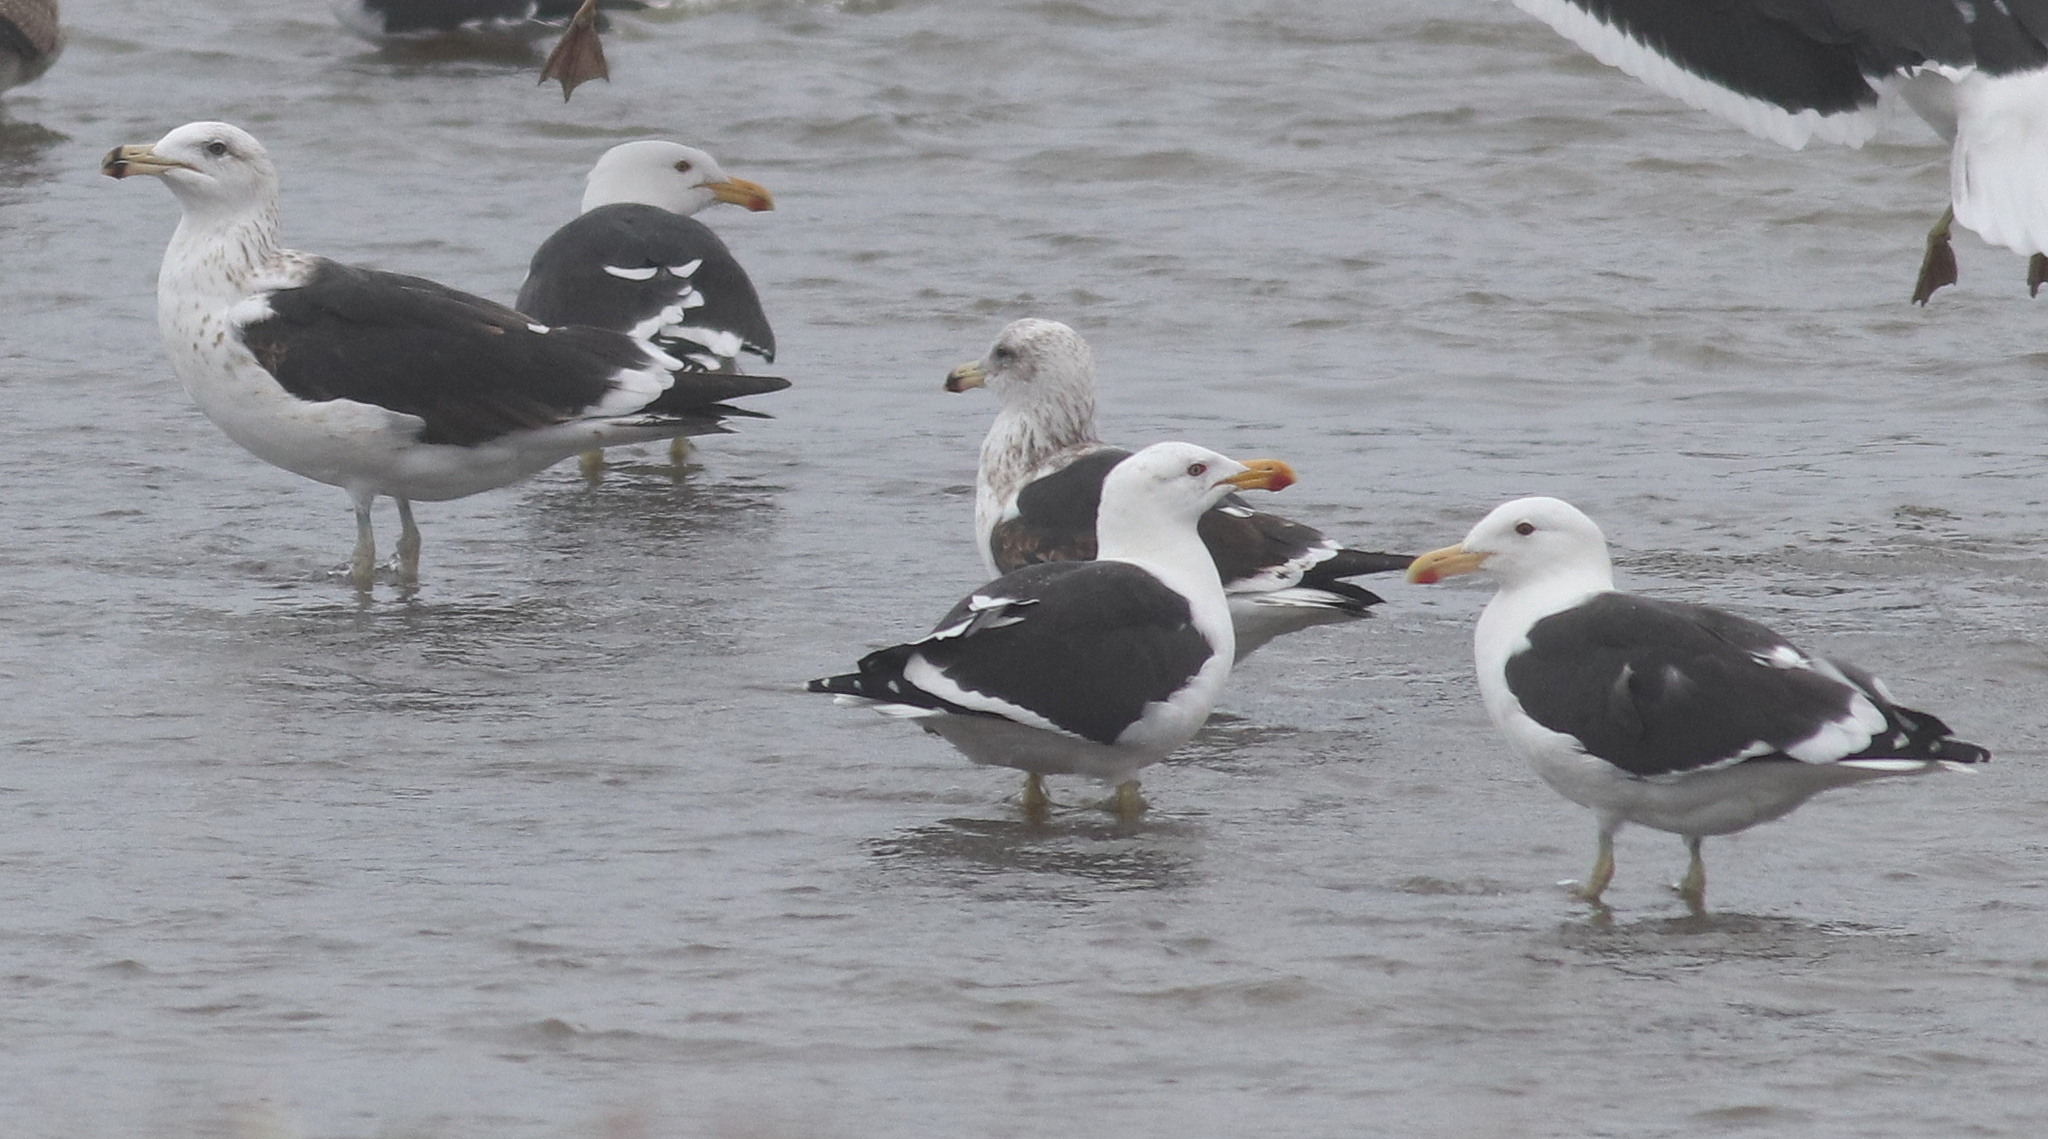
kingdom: Animalia
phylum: Chordata
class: Aves
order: Charadriiformes
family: Laridae
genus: Larus
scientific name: Larus dominicanus
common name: Kelp gull
